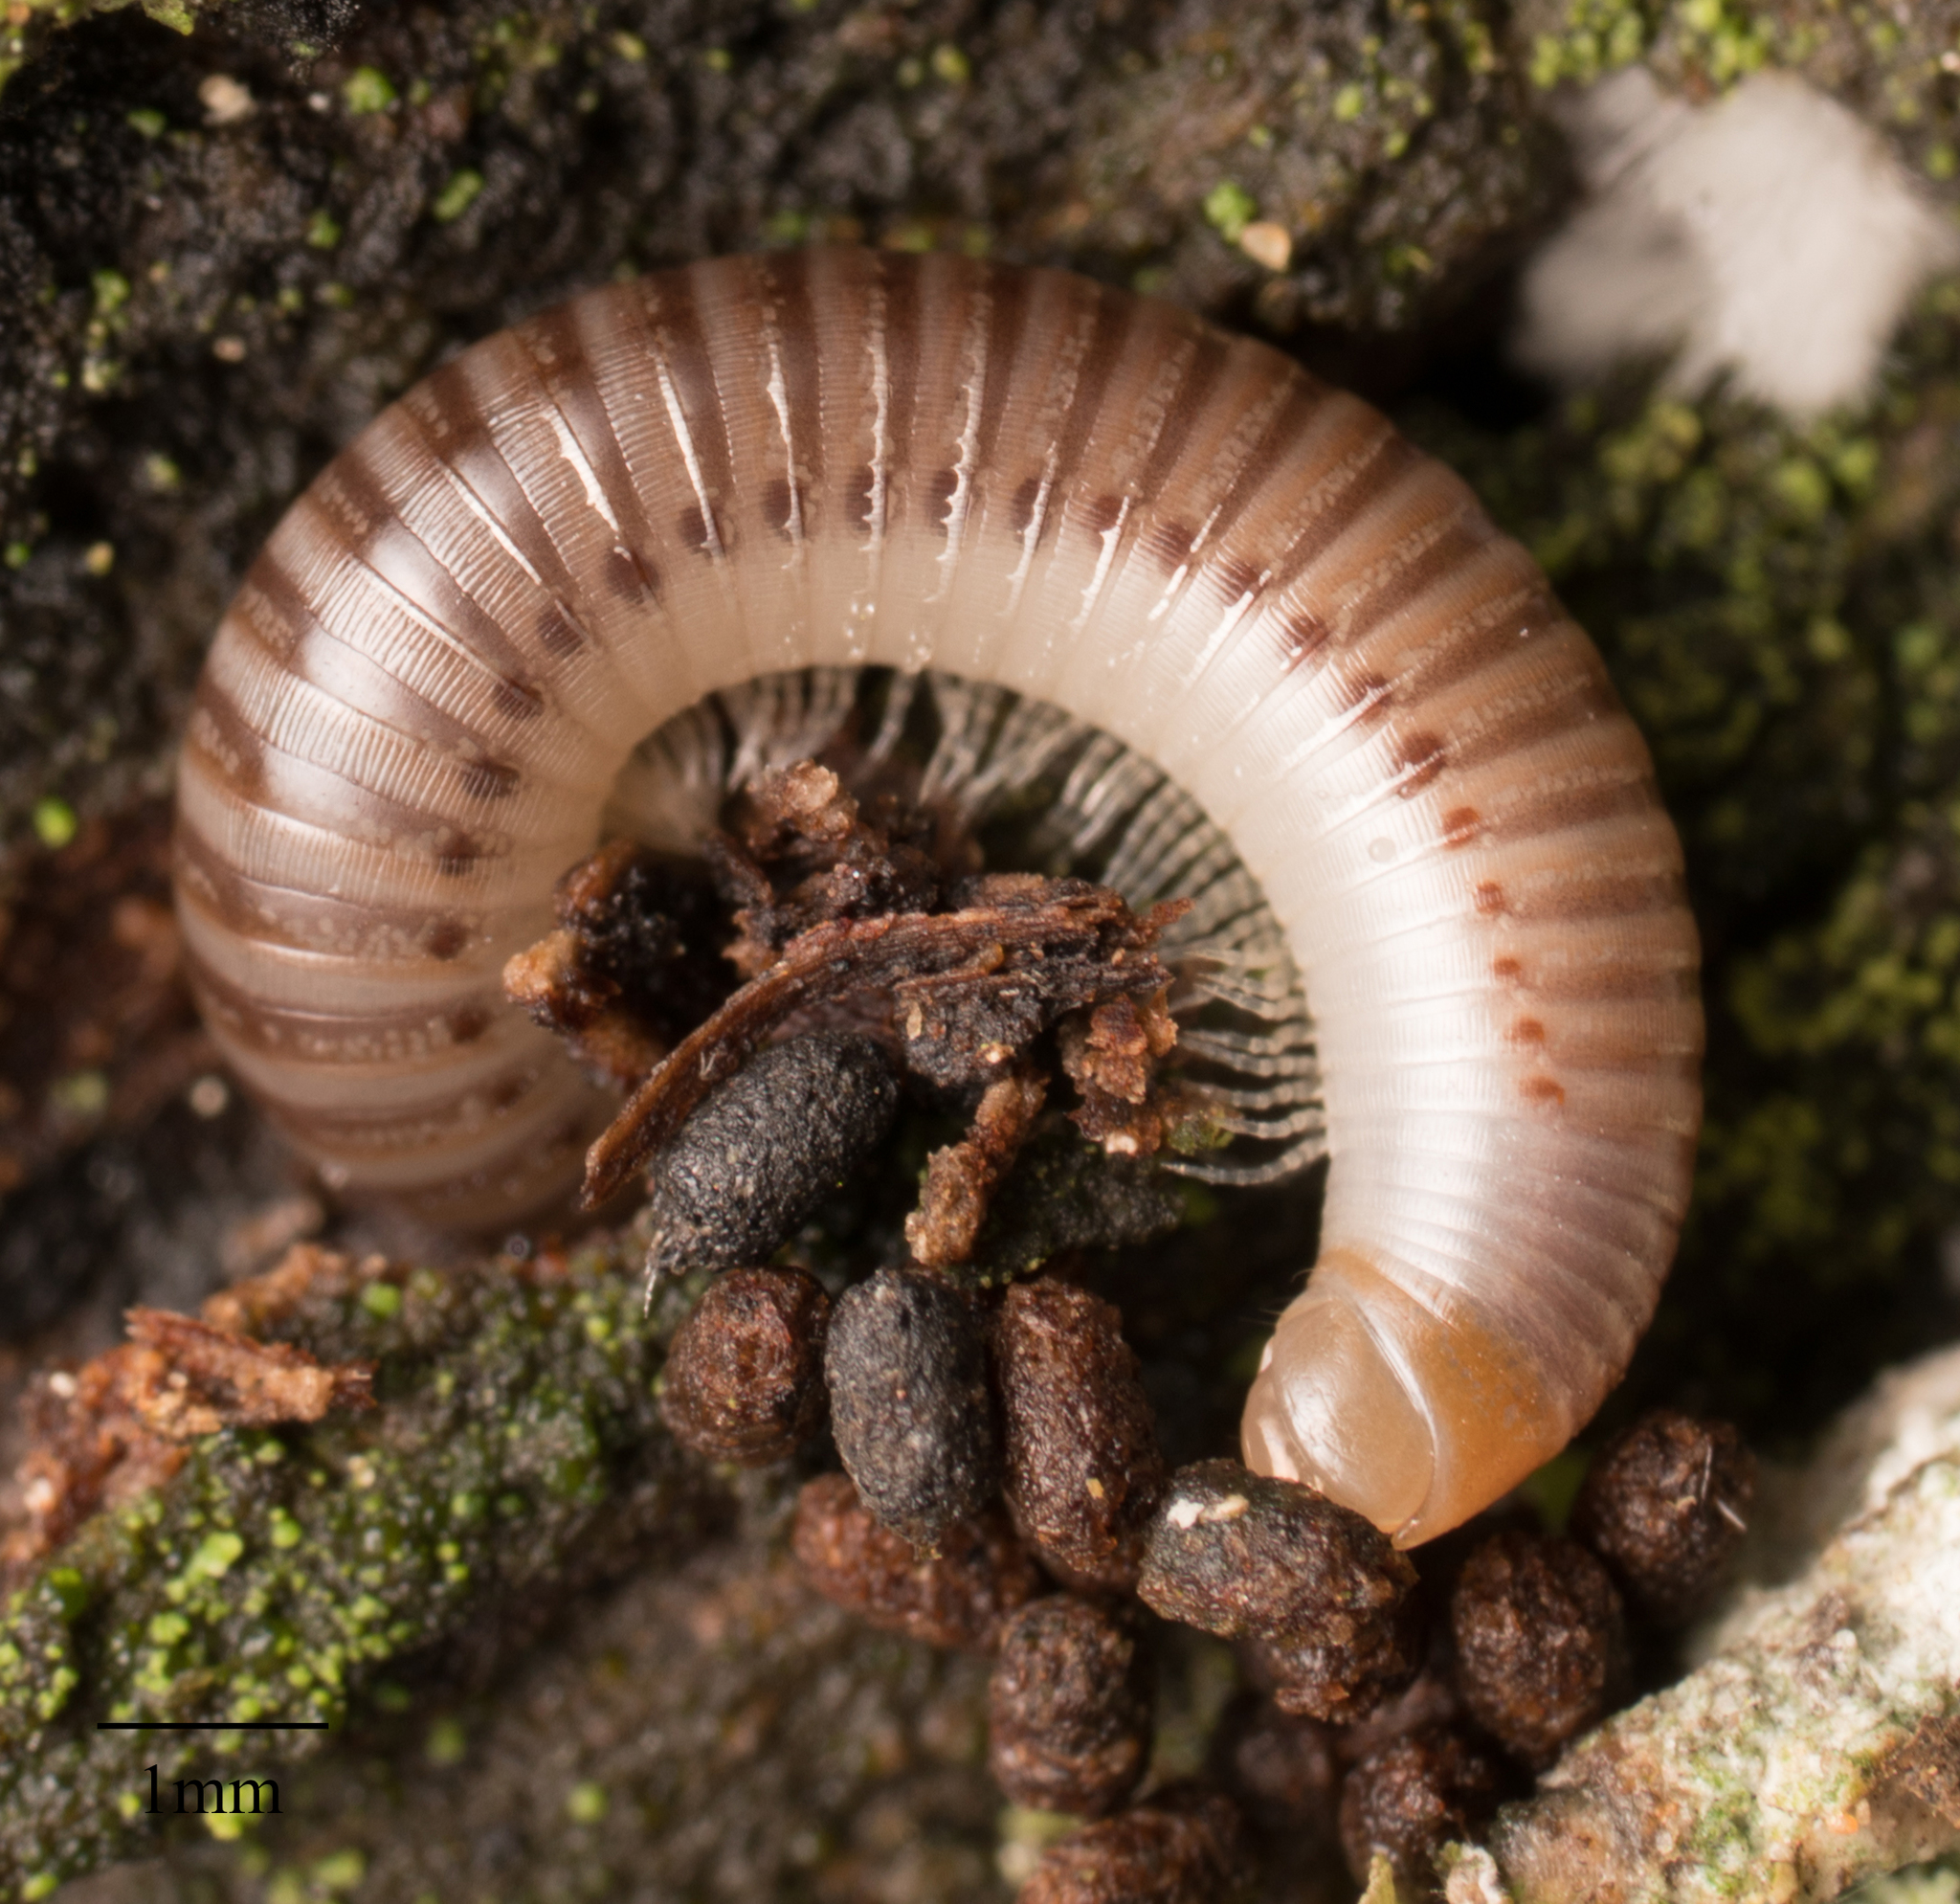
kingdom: Animalia
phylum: Arthropoda
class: Diplopoda
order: Julida
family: Julidae
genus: Cylindroiulus
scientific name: Cylindroiulus broti
